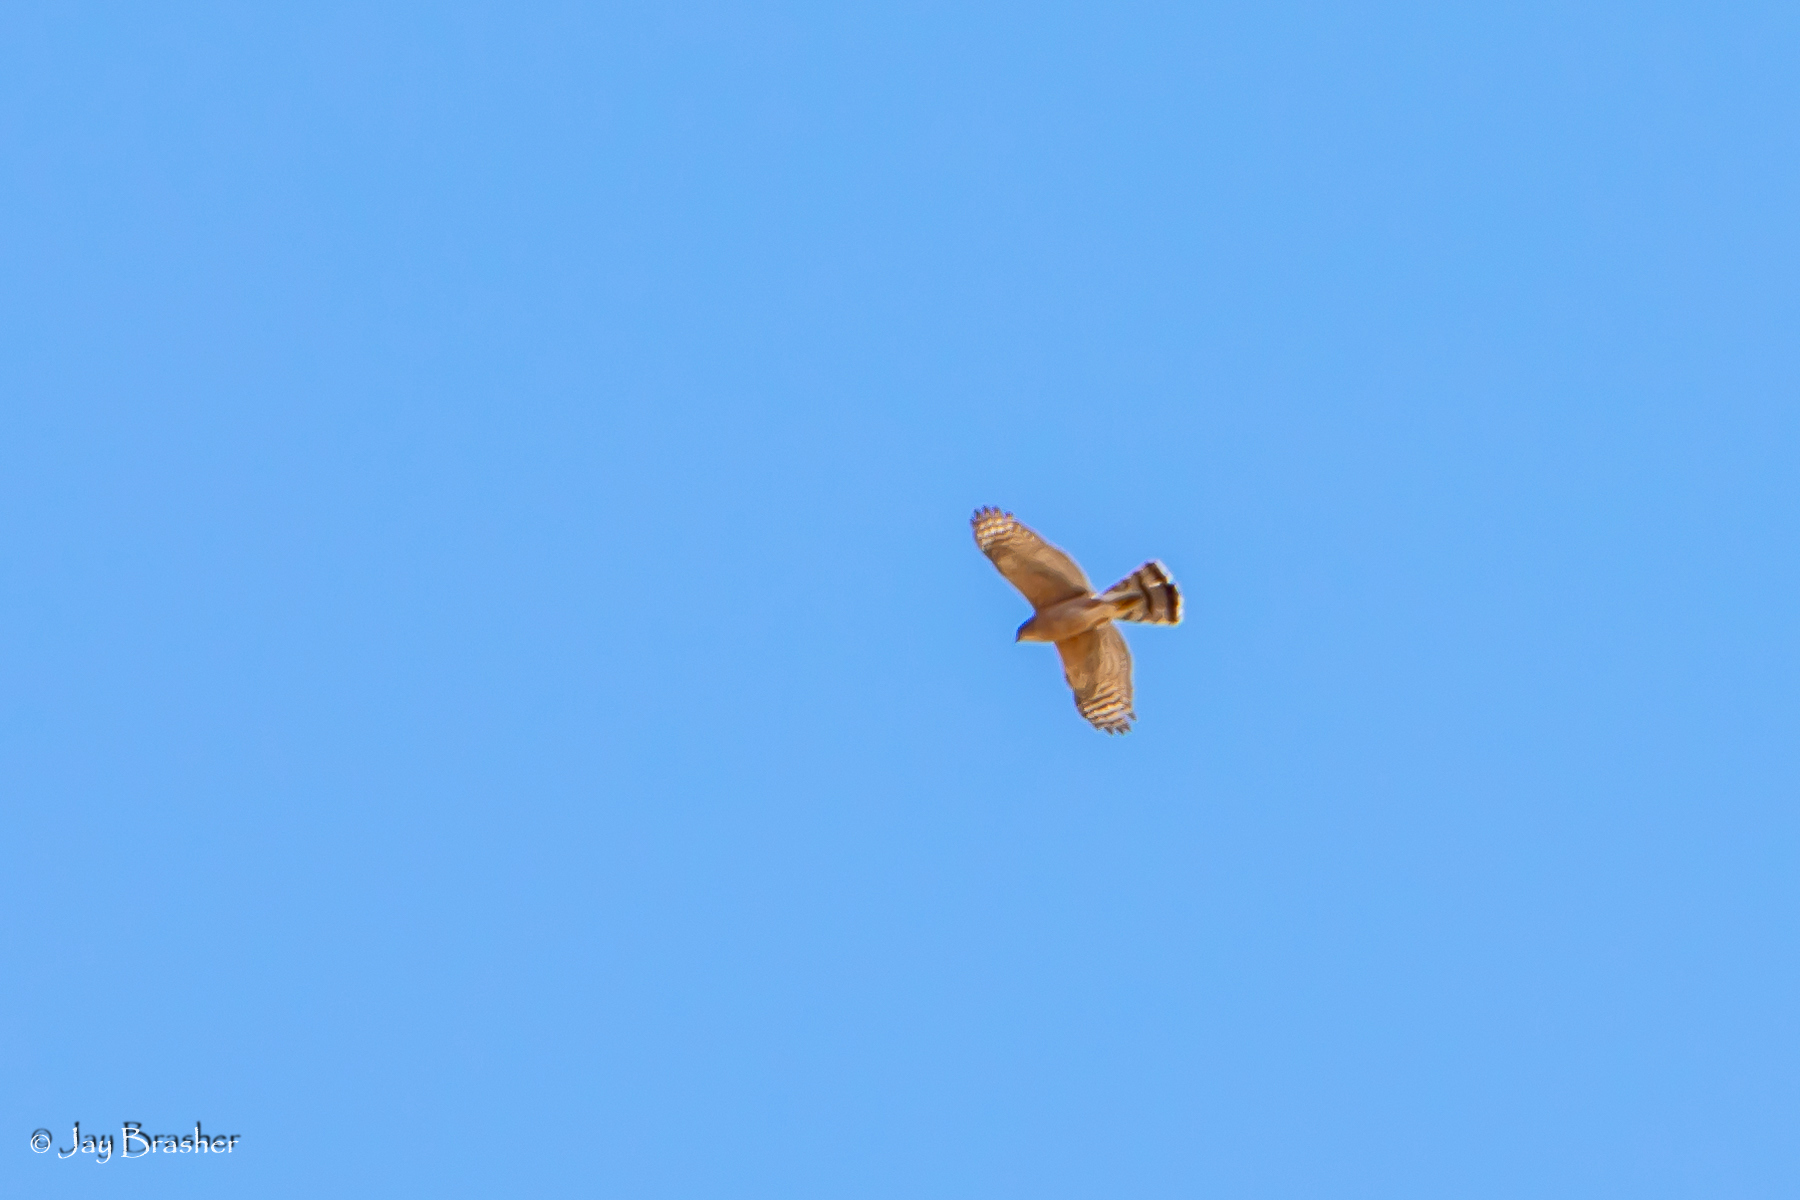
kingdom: Animalia
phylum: Chordata
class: Aves
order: Accipitriformes
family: Accipitridae
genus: Accipiter
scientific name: Accipiter cooperii
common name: Cooper's hawk
